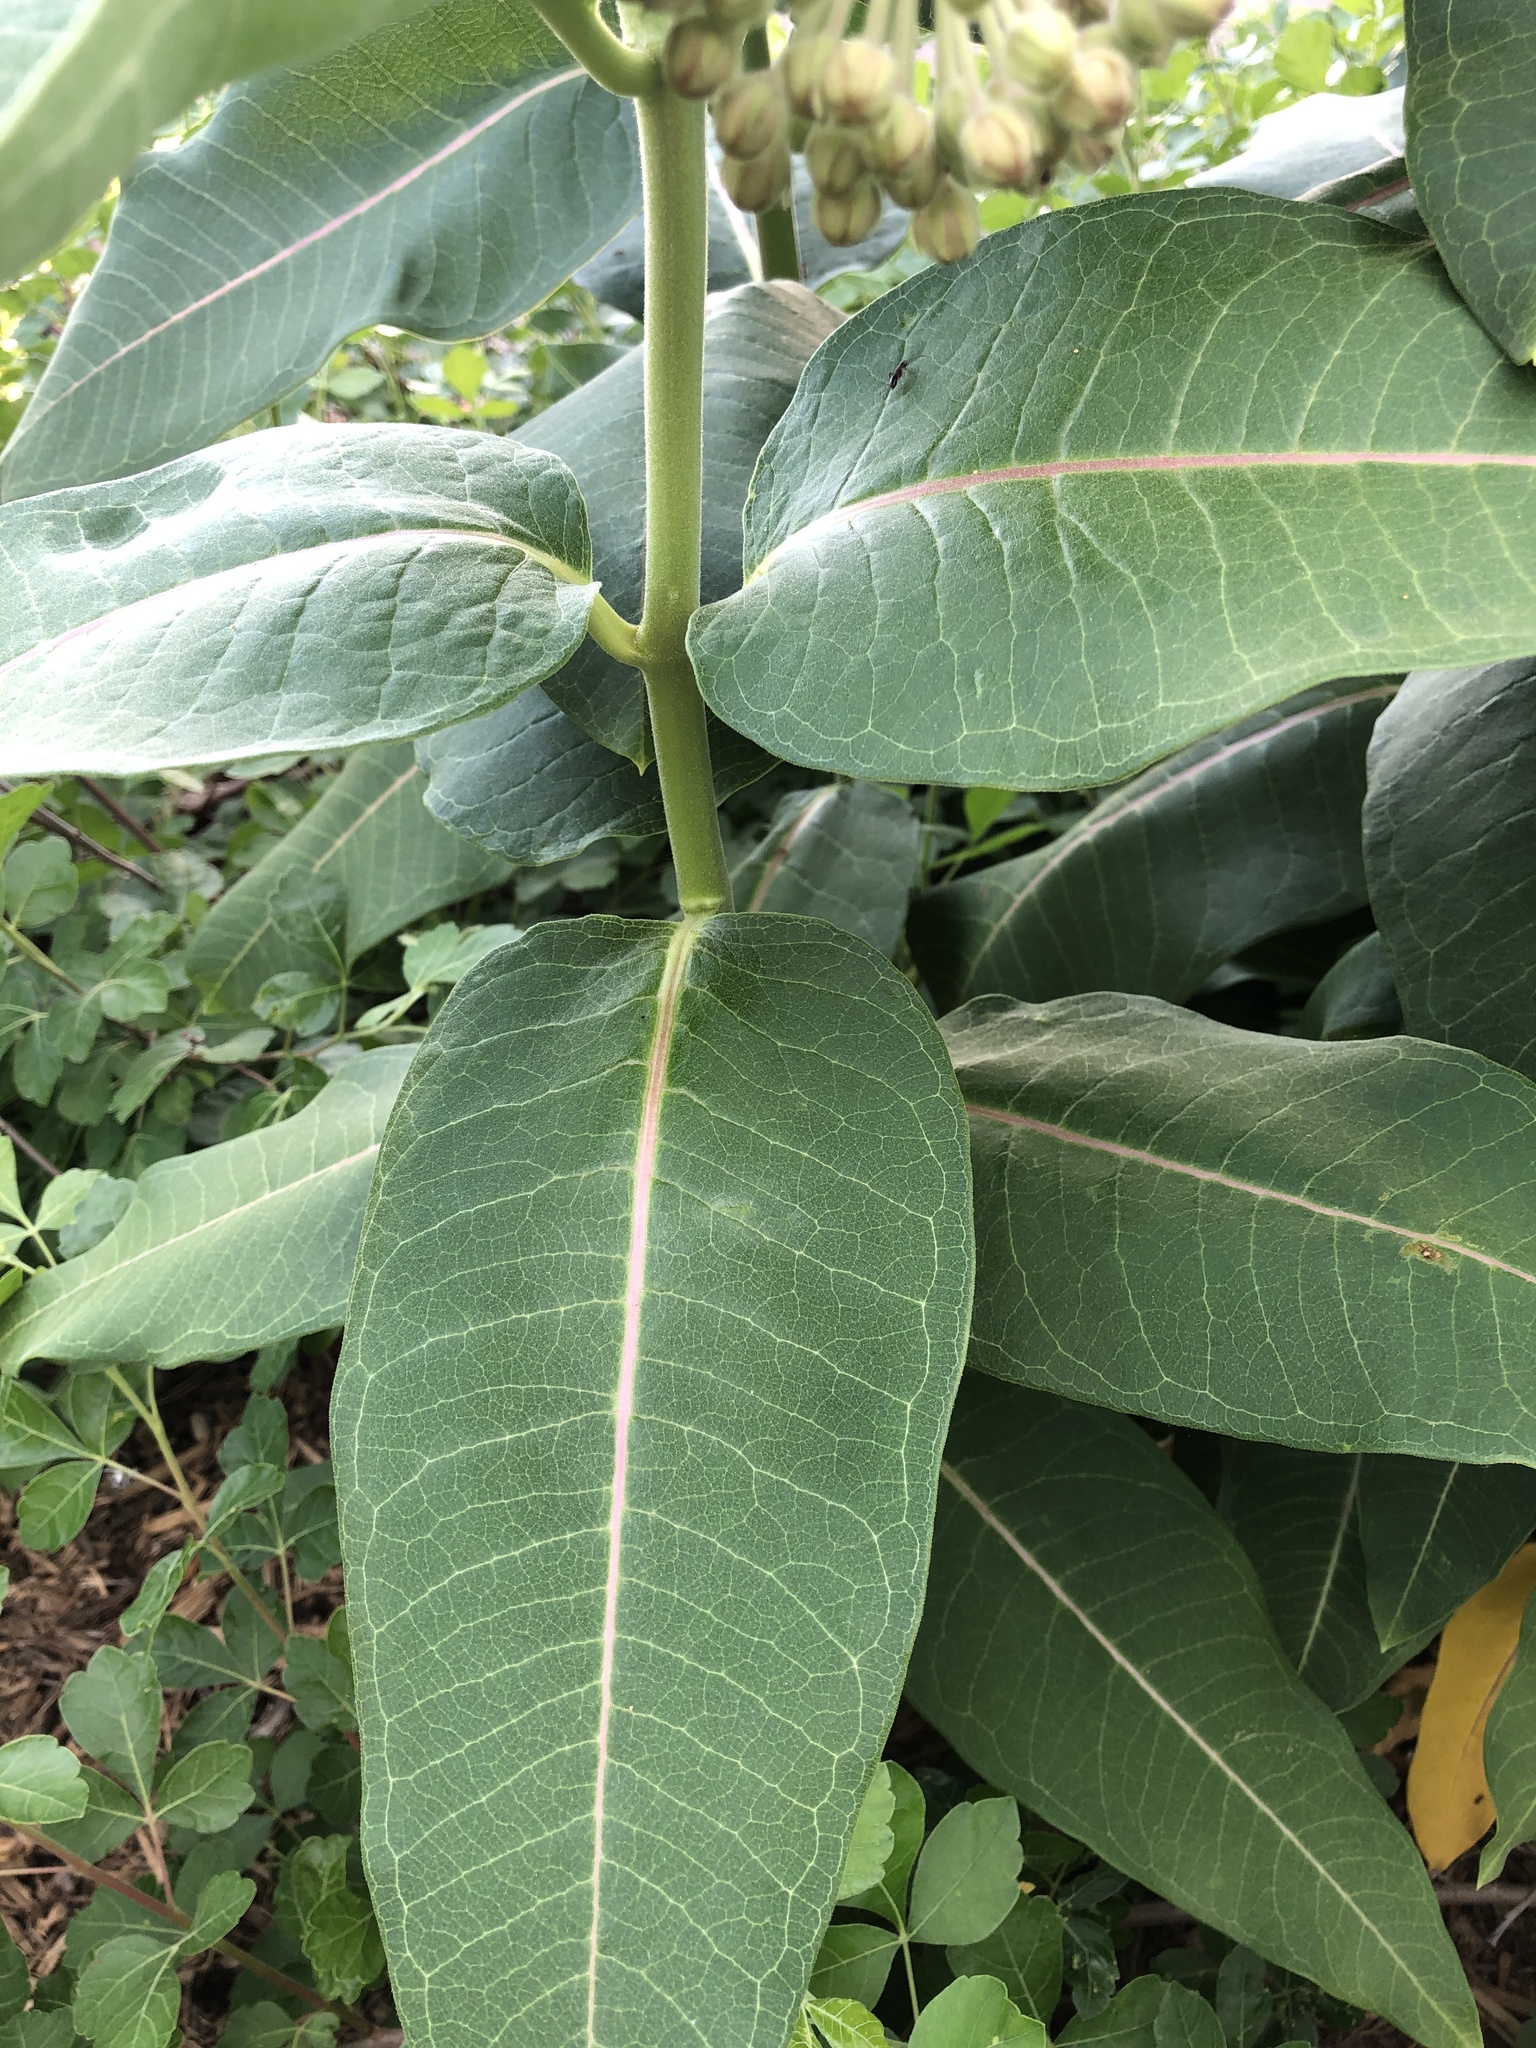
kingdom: Plantae
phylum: Tracheophyta
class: Magnoliopsida
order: Gentianales
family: Apocynaceae
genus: Asclepias
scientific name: Asclepias syriaca
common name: Common milkweed
